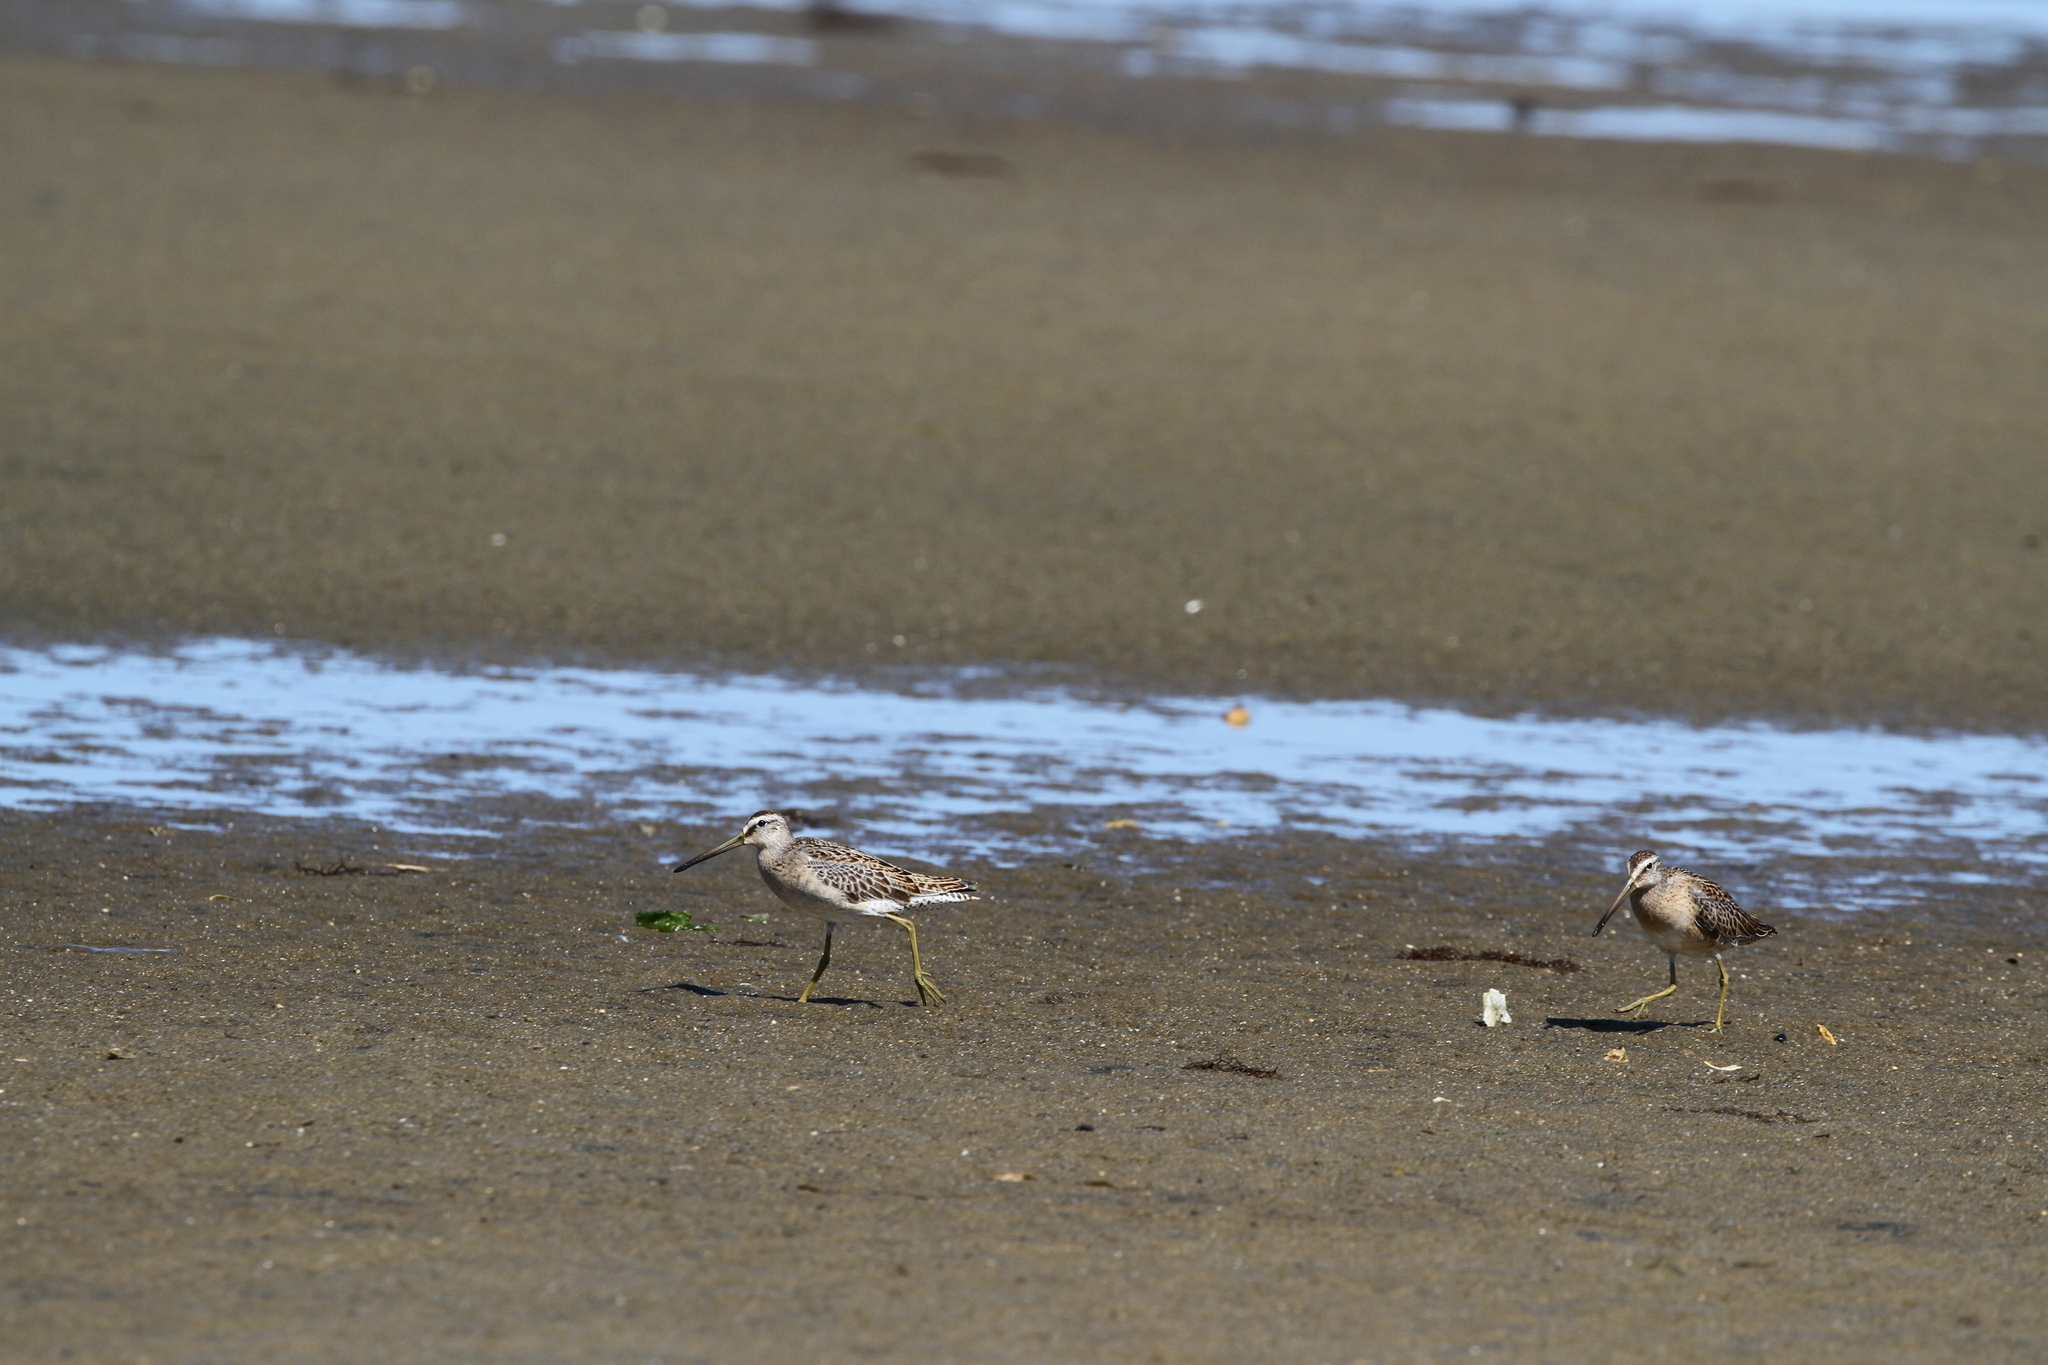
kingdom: Animalia
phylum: Chordata
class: Aves
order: Charadriiformes
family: Scolopacidae
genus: Limnodromus
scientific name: Limnodromus griseus
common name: Short-billed dowitcher
